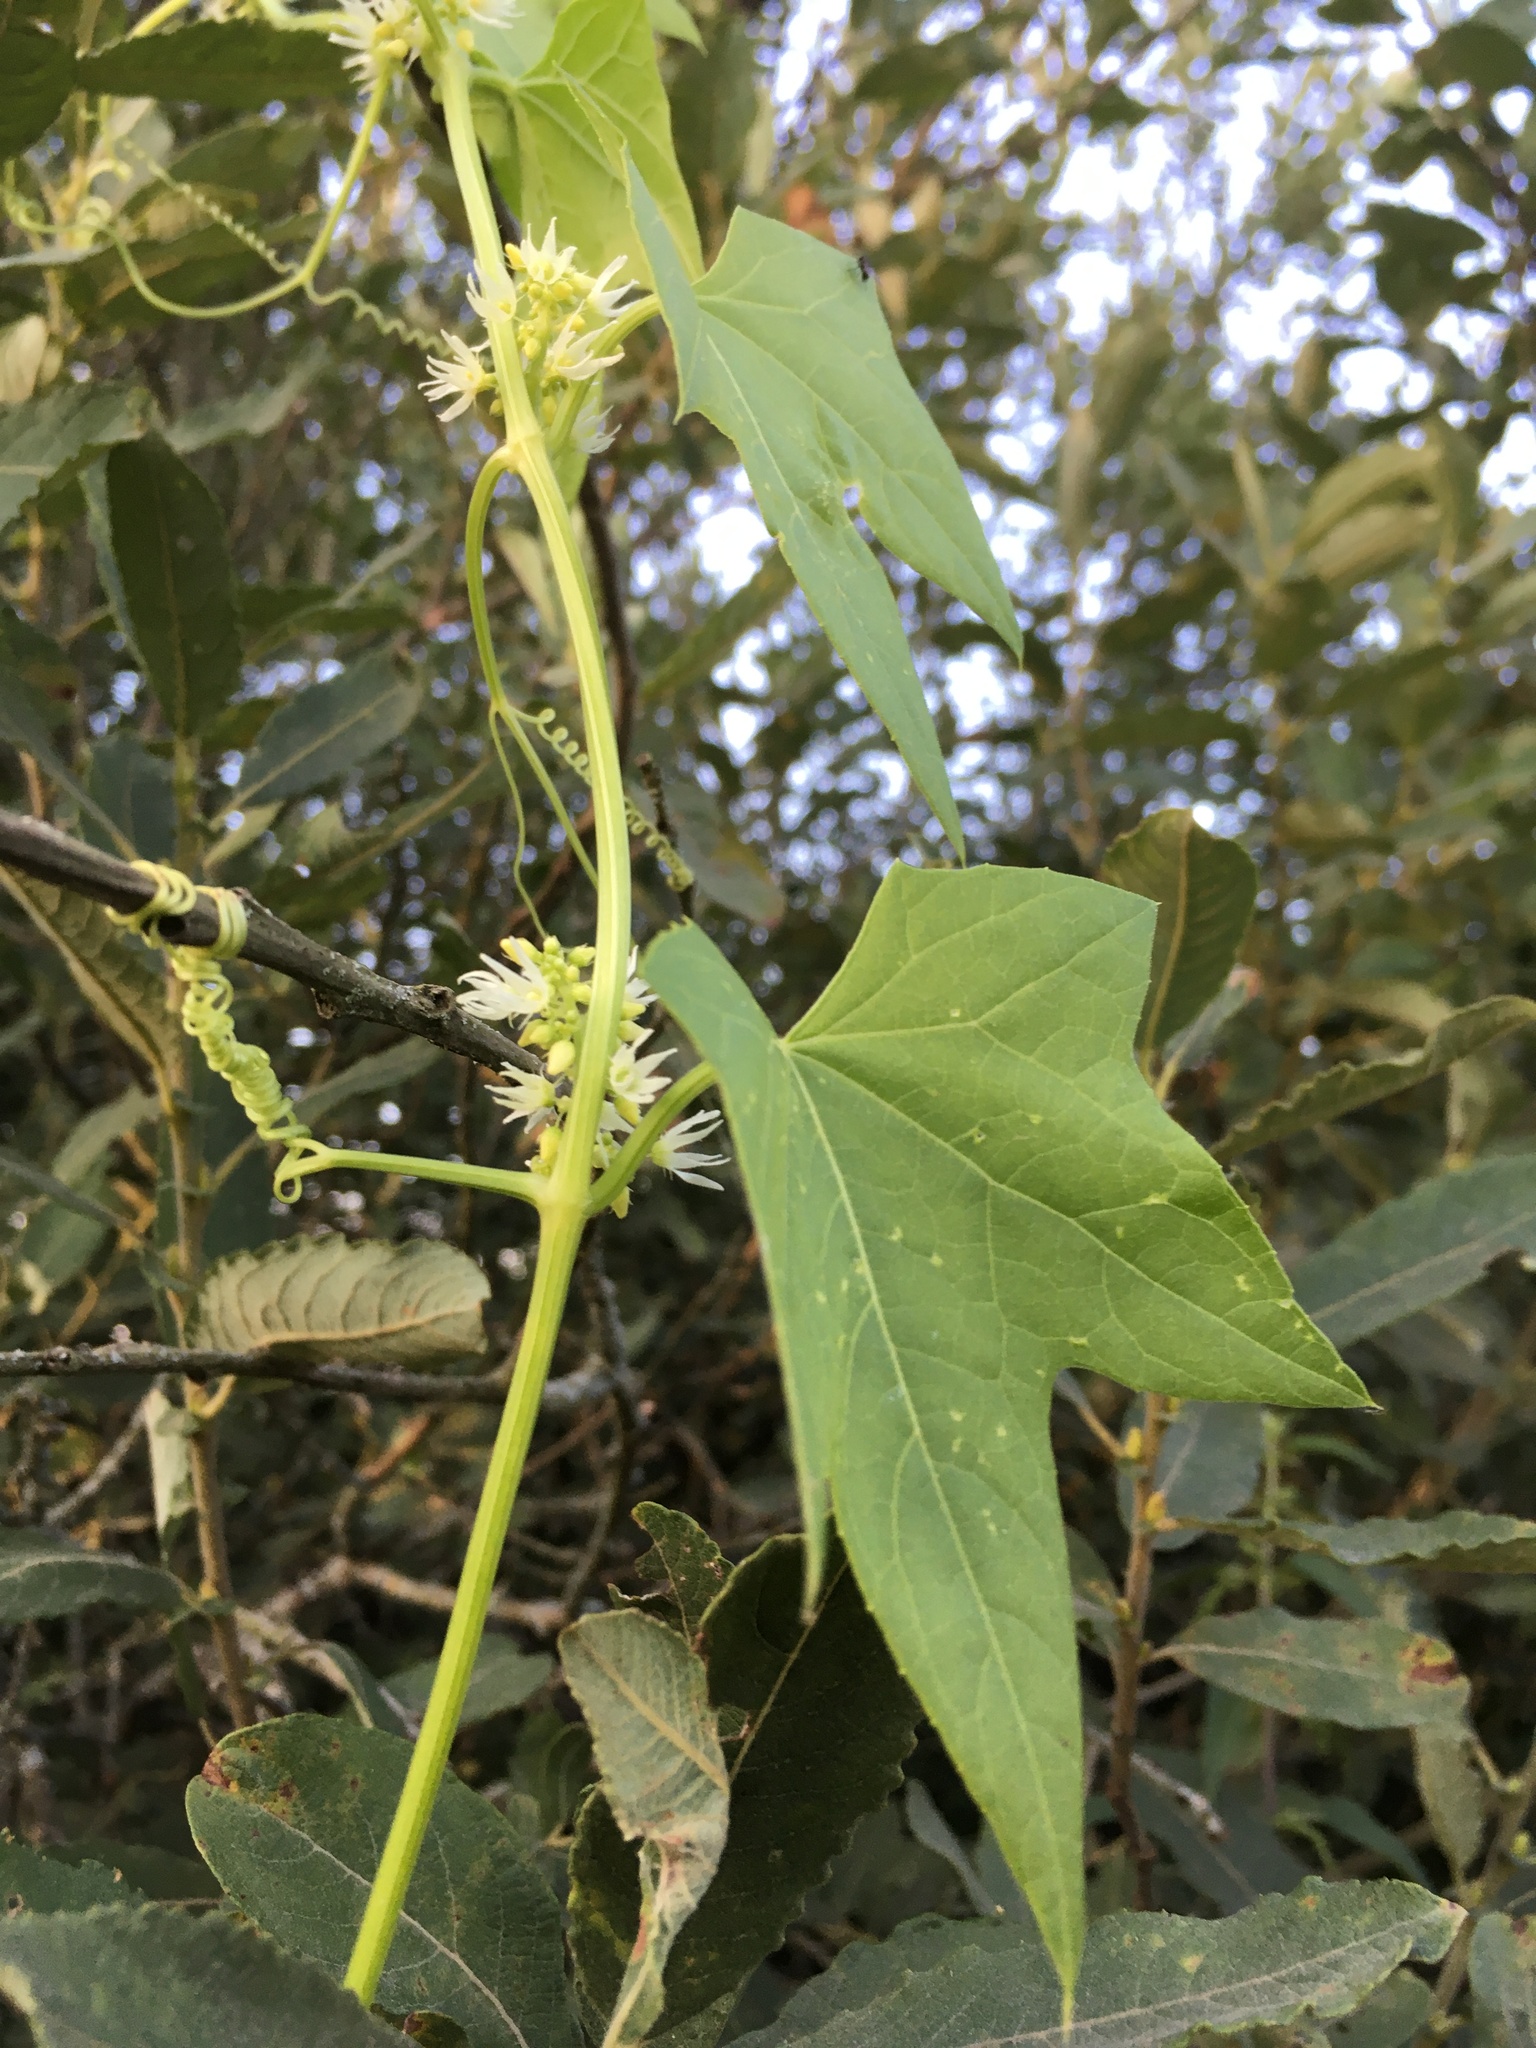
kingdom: Plantae
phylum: Tracheophyta
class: Magnoliopsida
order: Cucurbitales
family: Cucurbitaceae
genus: Echinocystis
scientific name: Echinocystis lobata
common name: Wild cucumber
